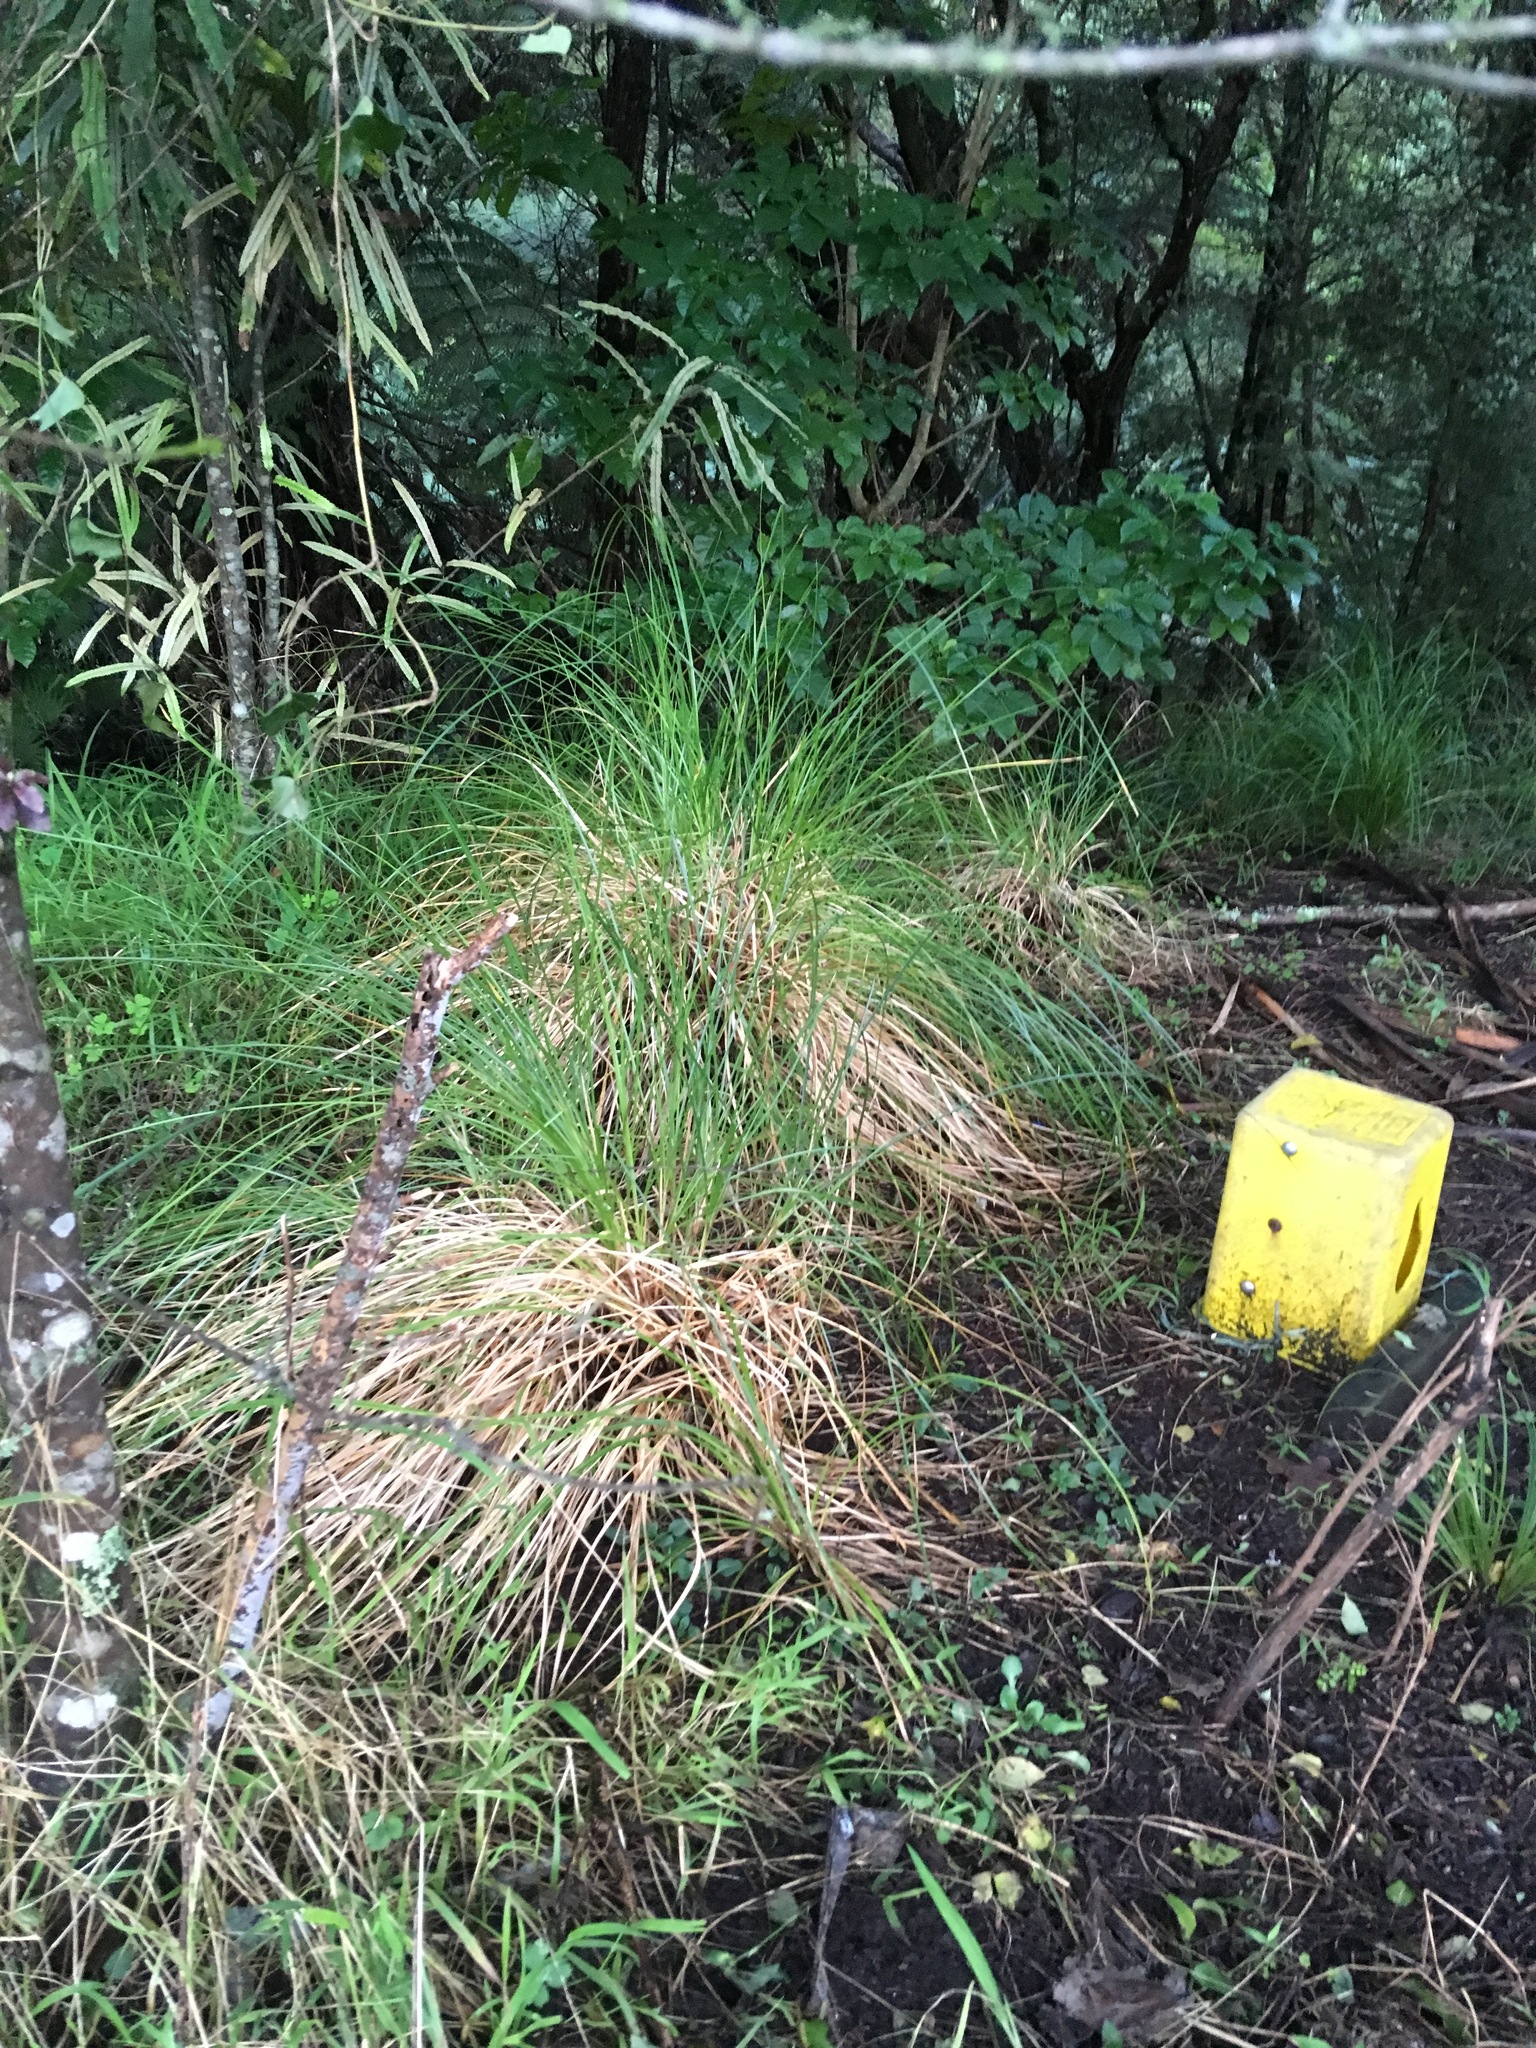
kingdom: Plantae
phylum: Tracheophyta
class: Magnoliopsida
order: Apiales
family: Pittosporaceae
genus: Pittosporum
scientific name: Pittosporum tenuifolium
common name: Kohuhu
